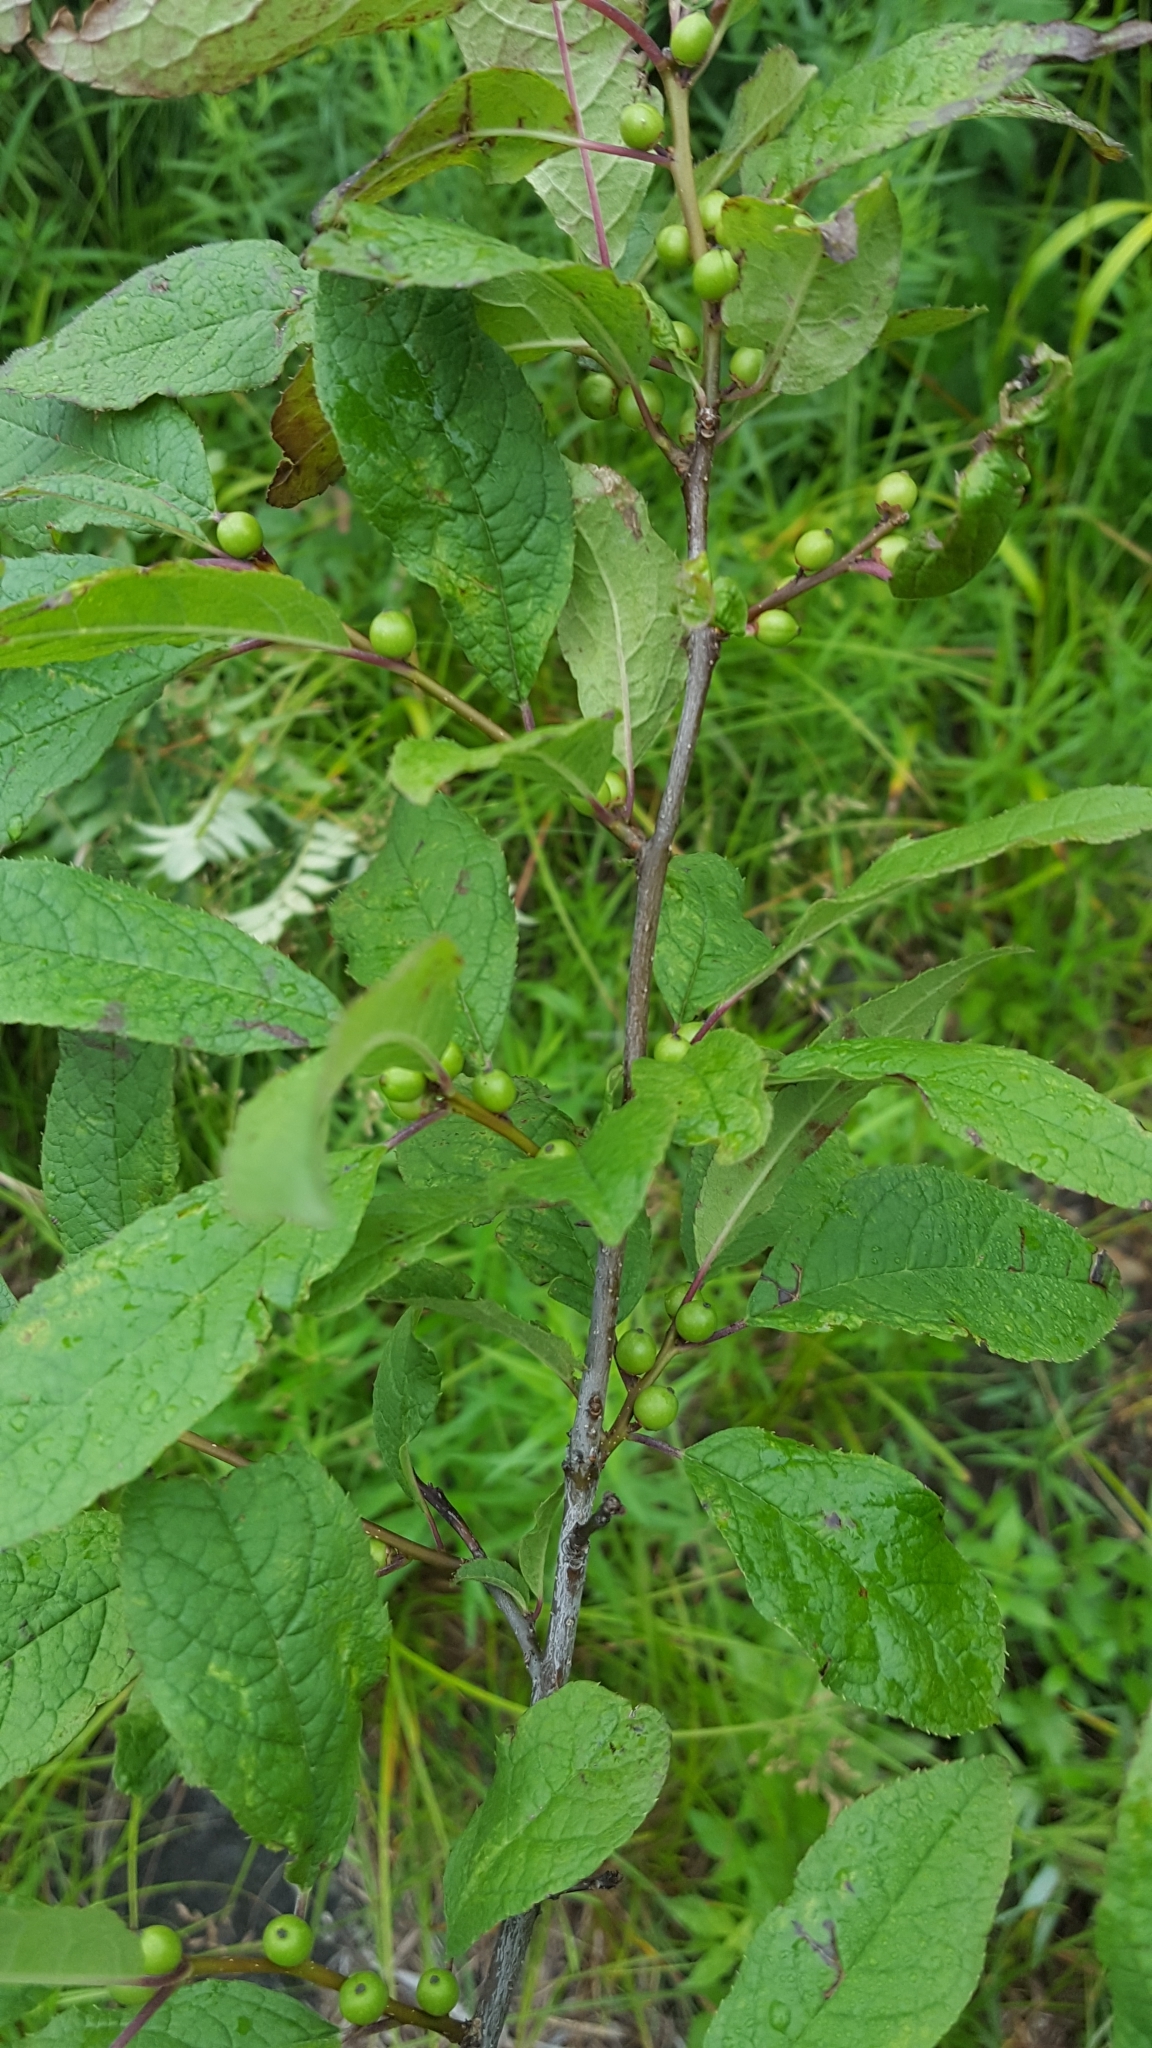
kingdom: Plantae
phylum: Tracheophyta
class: Magnoliopsida
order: Aquifoliales
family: Aquifoliaceae
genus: Ilex
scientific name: Ilex verticillata
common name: Virginia winterberry
